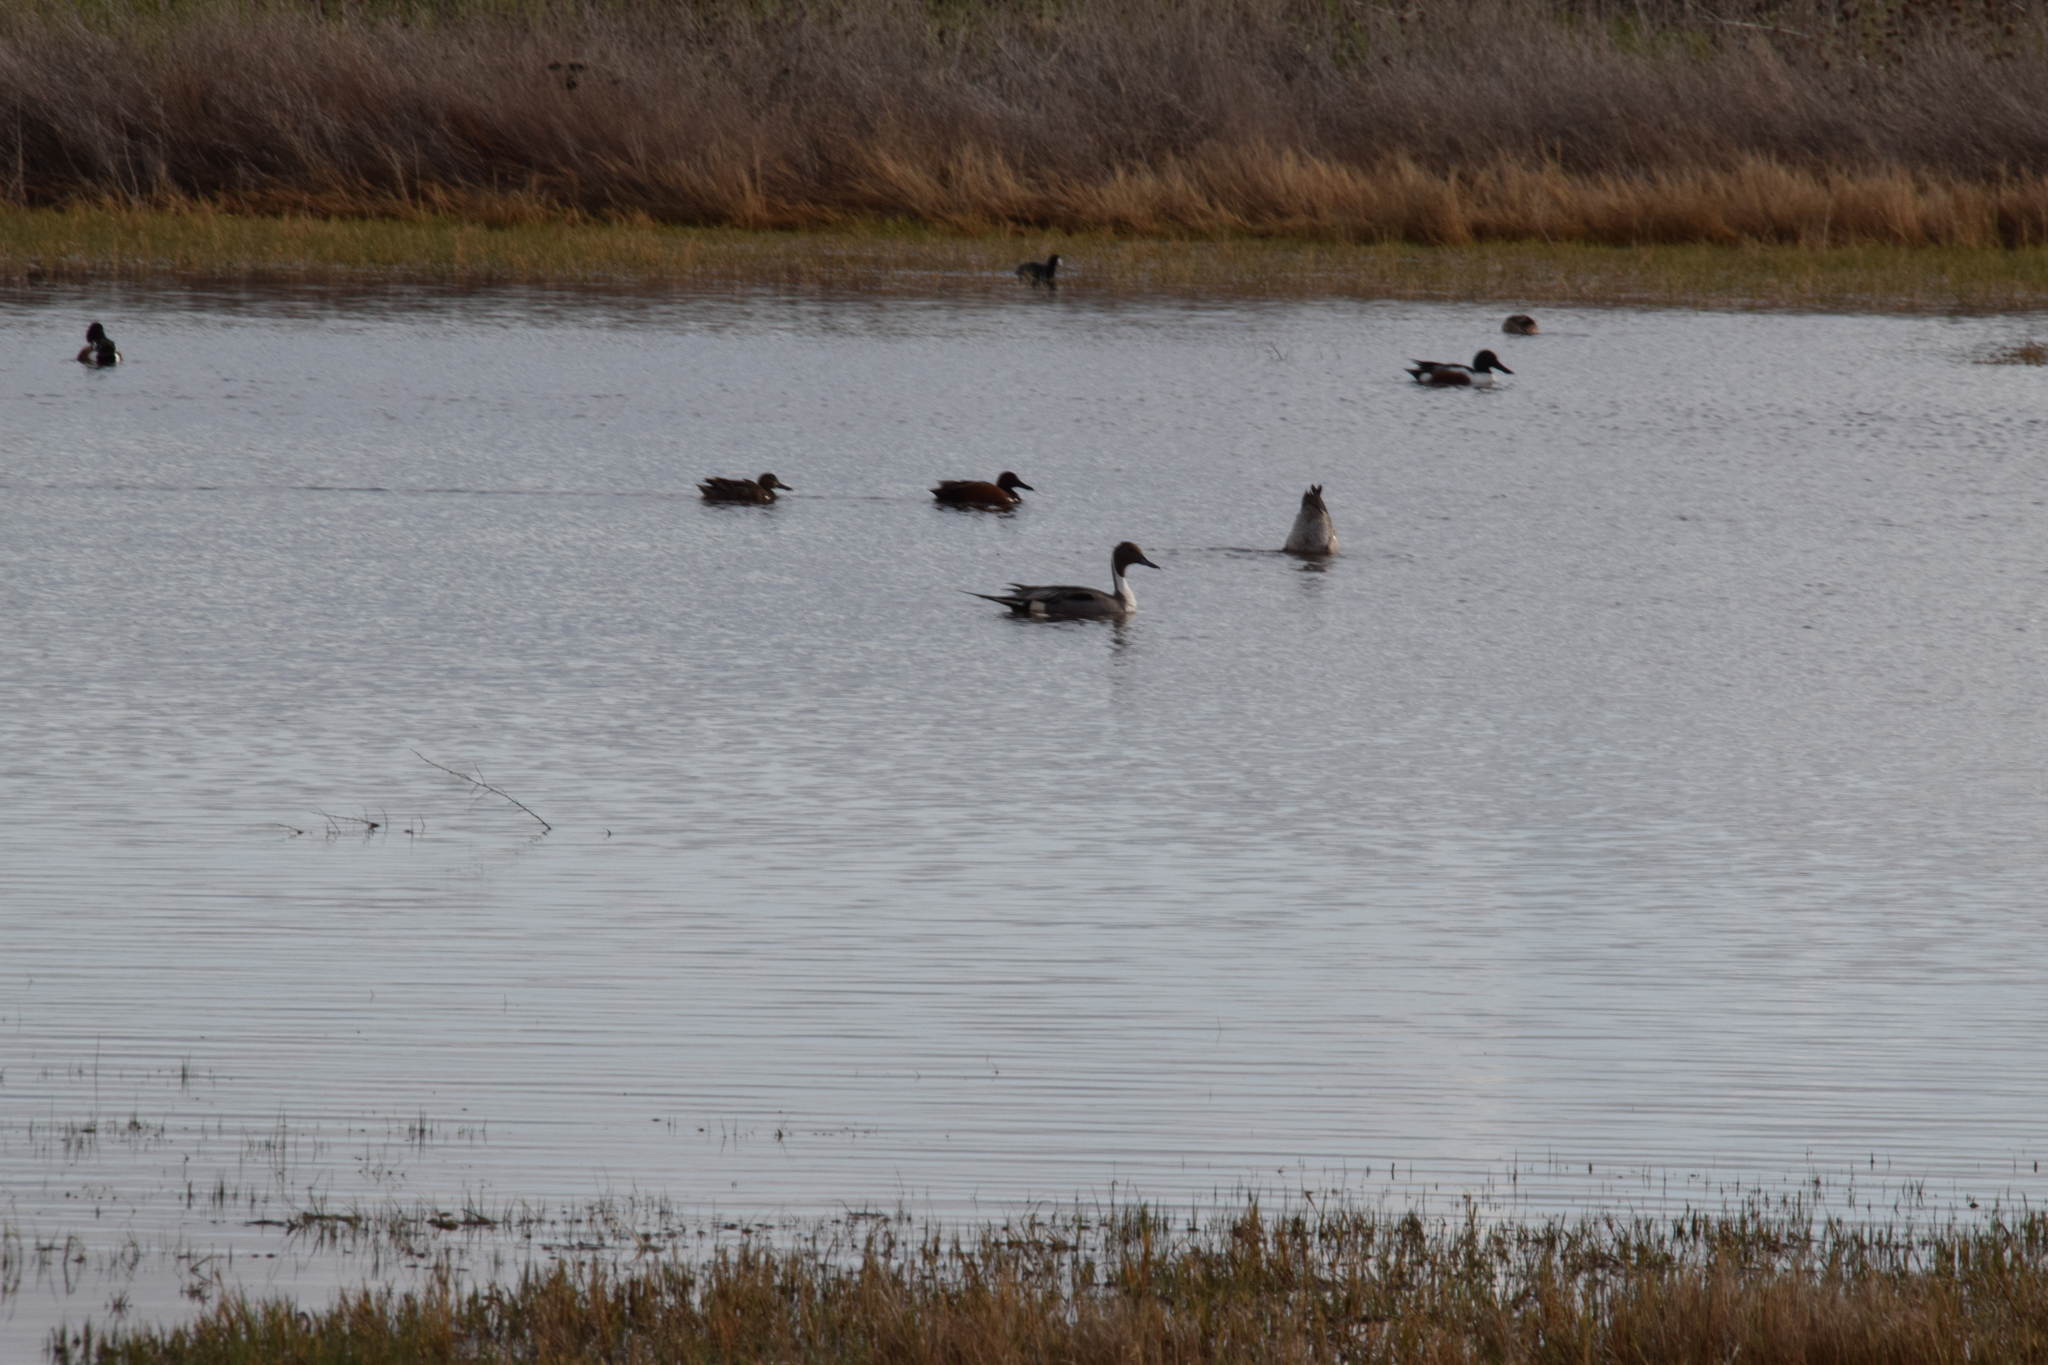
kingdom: Animalia
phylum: Chordata
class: Aves
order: Anseriformes
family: Anatidae
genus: Anas
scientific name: Anas acuta
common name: Northern pintail
